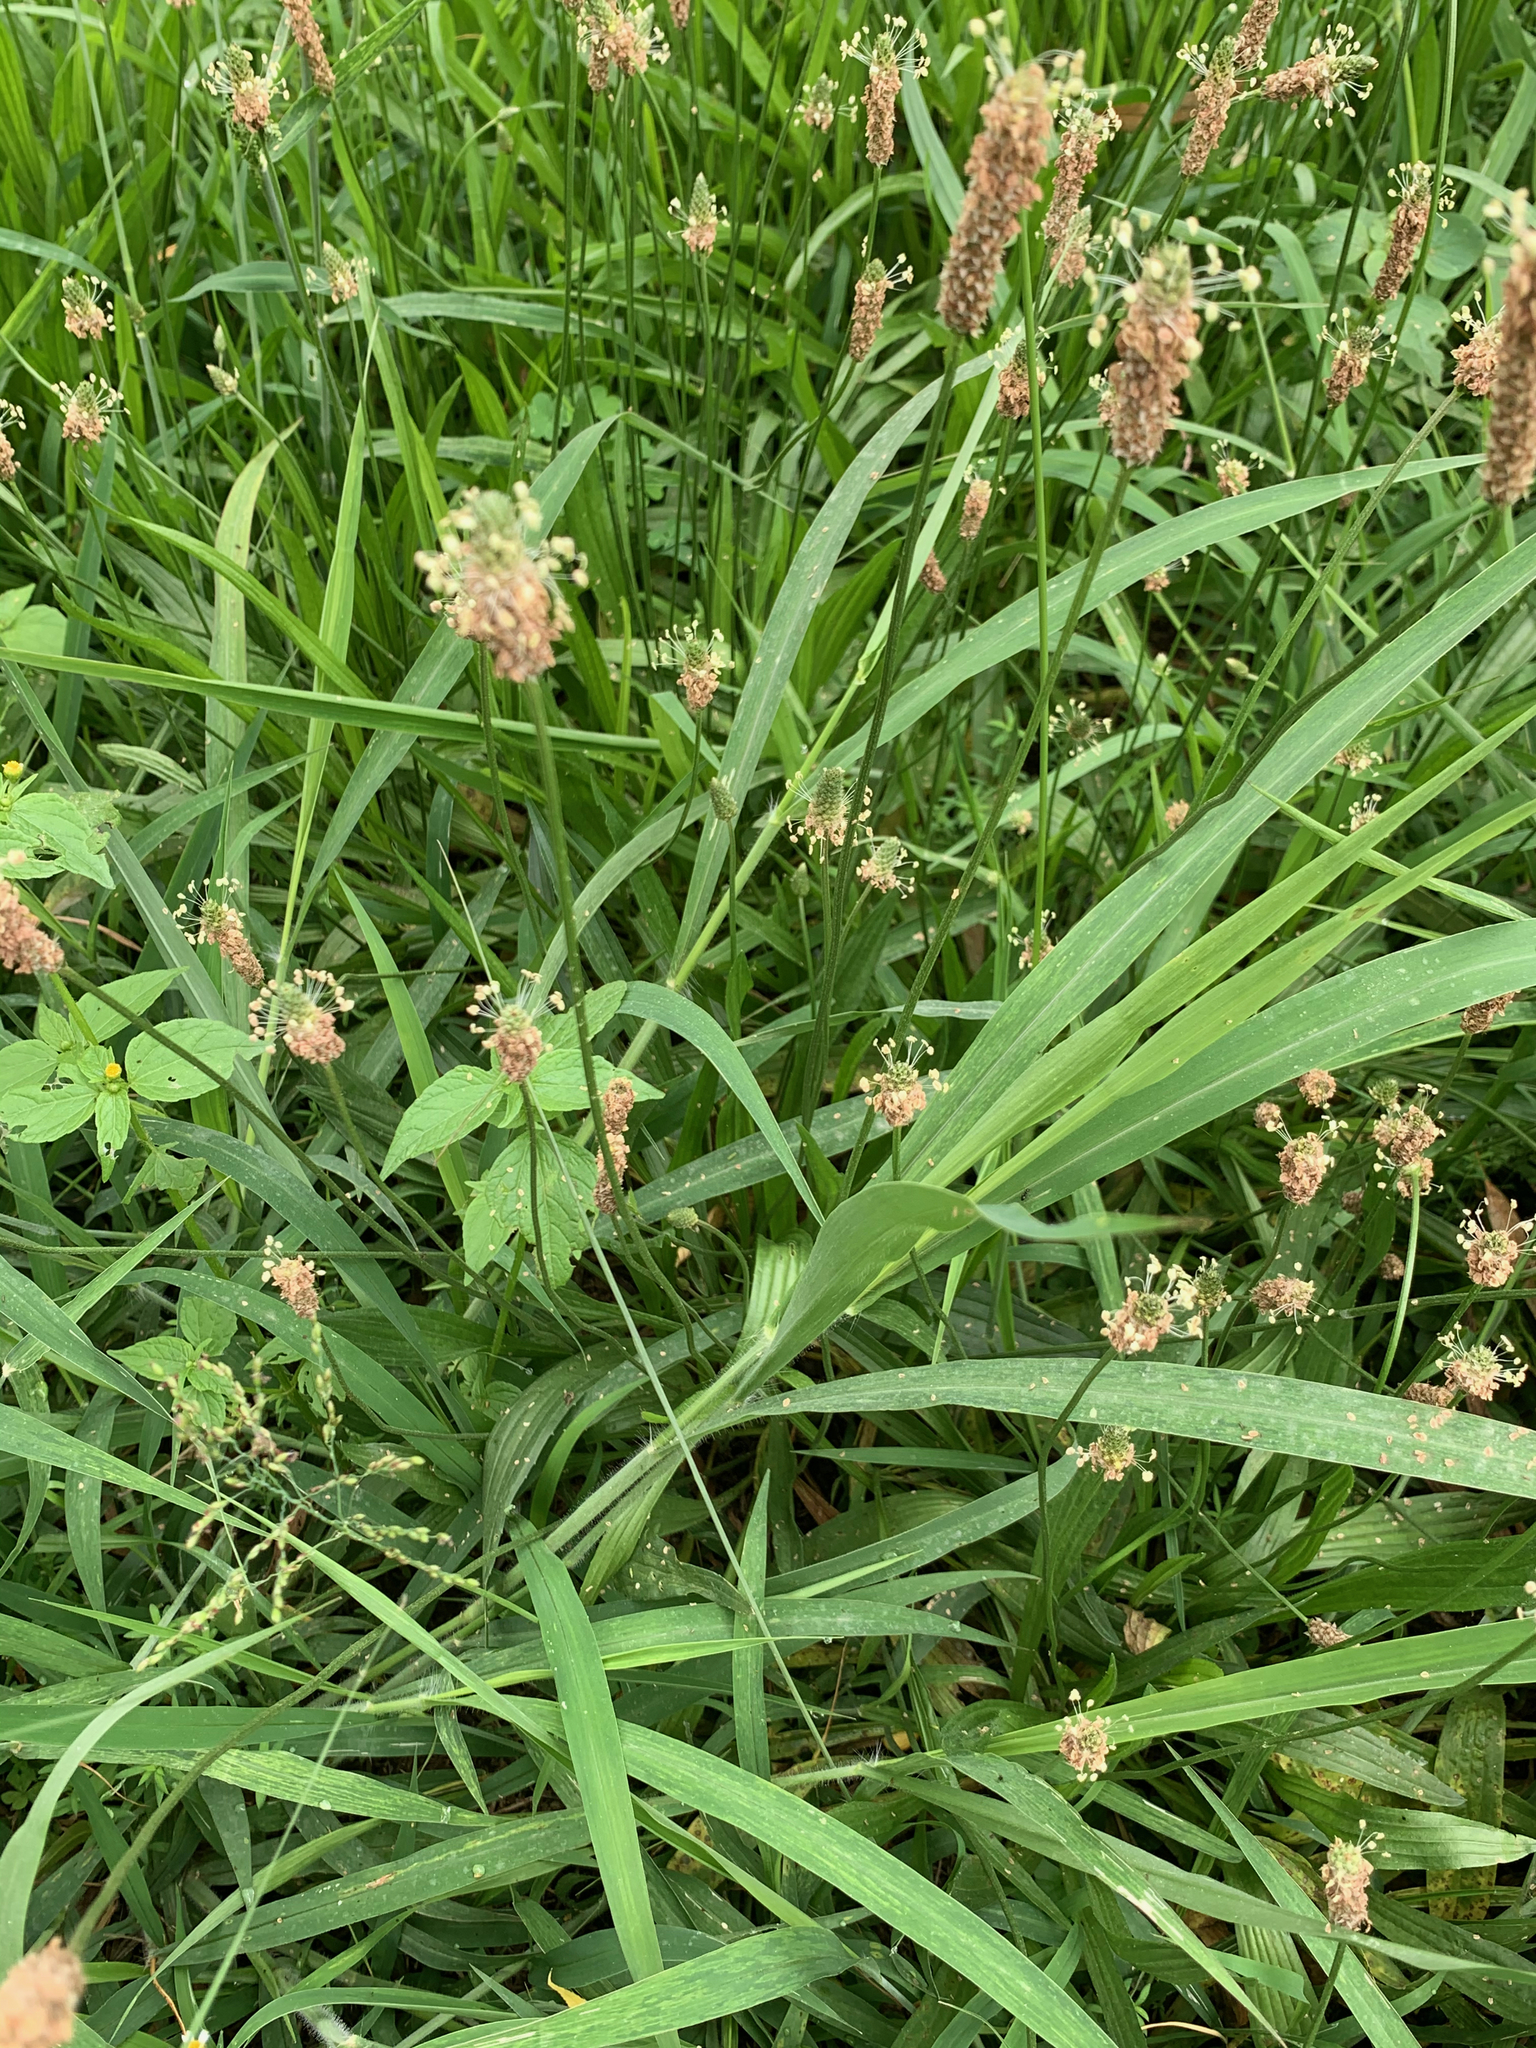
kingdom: Plantae
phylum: Tracheophyta
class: Magnoliopsida
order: Lamiales
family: Plantaginaceae
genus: Plantago
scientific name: Plantago lanceolata
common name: Ribwort plantain
